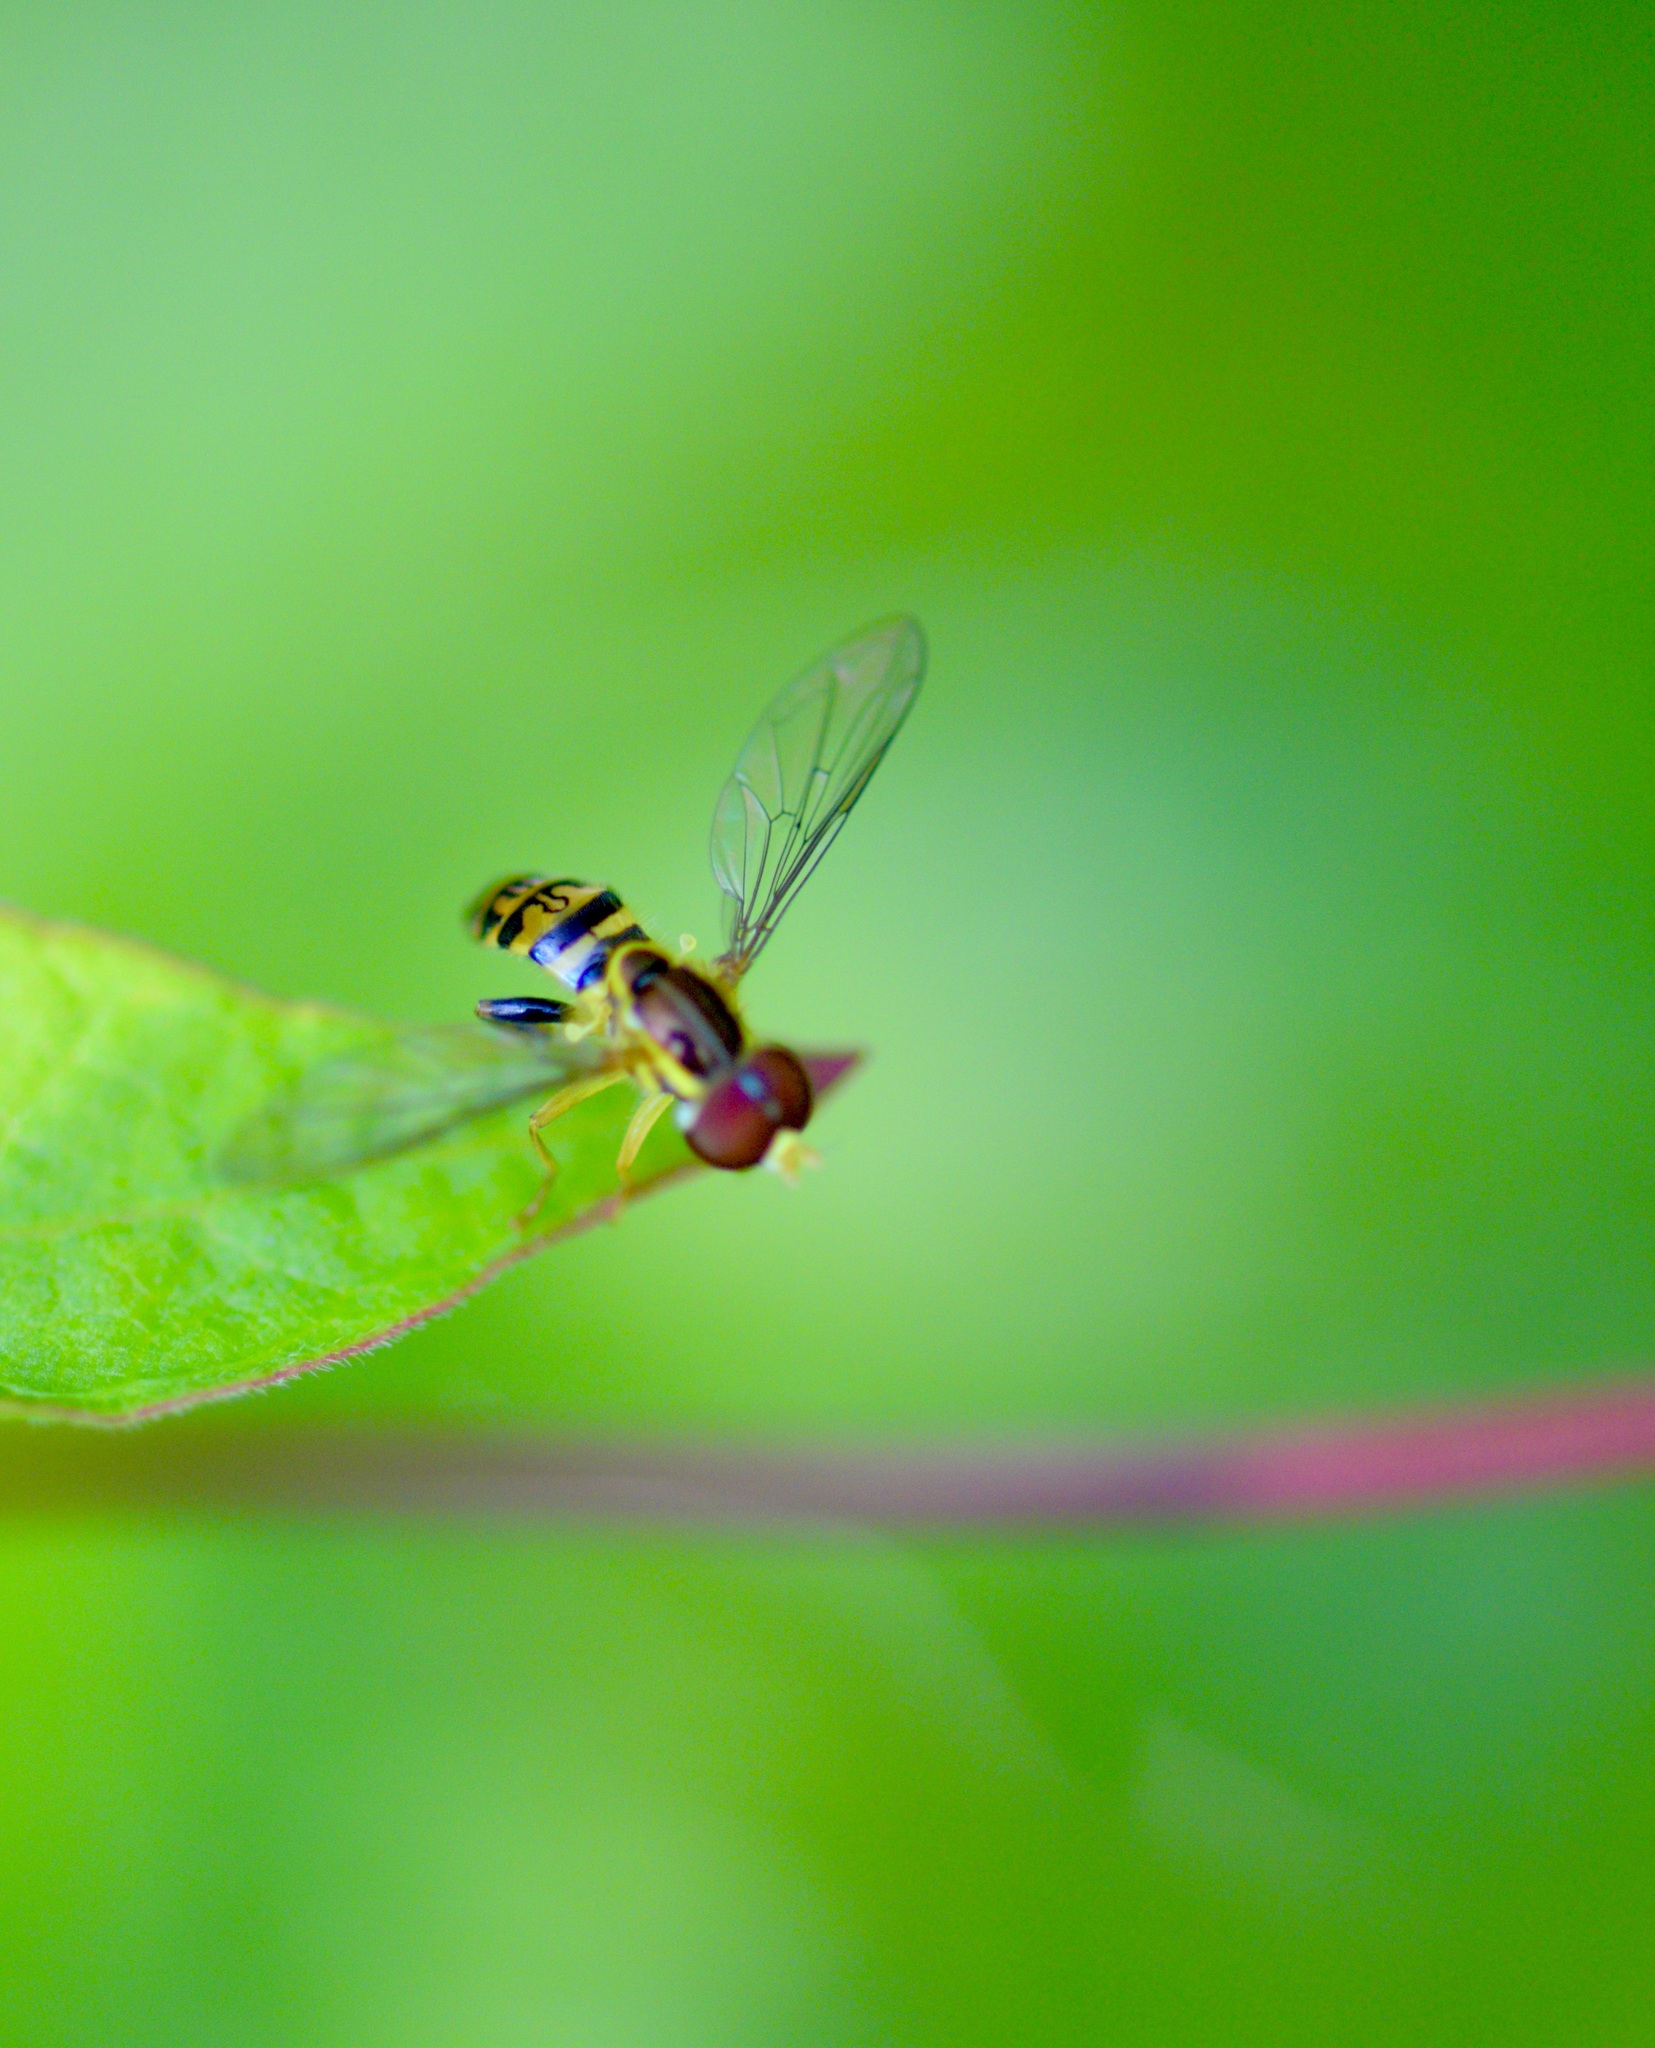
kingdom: Animalia
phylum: Arthropoda
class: Insecta
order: Diptera
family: Syrphidae
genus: Toxomerus
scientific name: Toxomerus geminatus
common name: Eastern calligrapher
